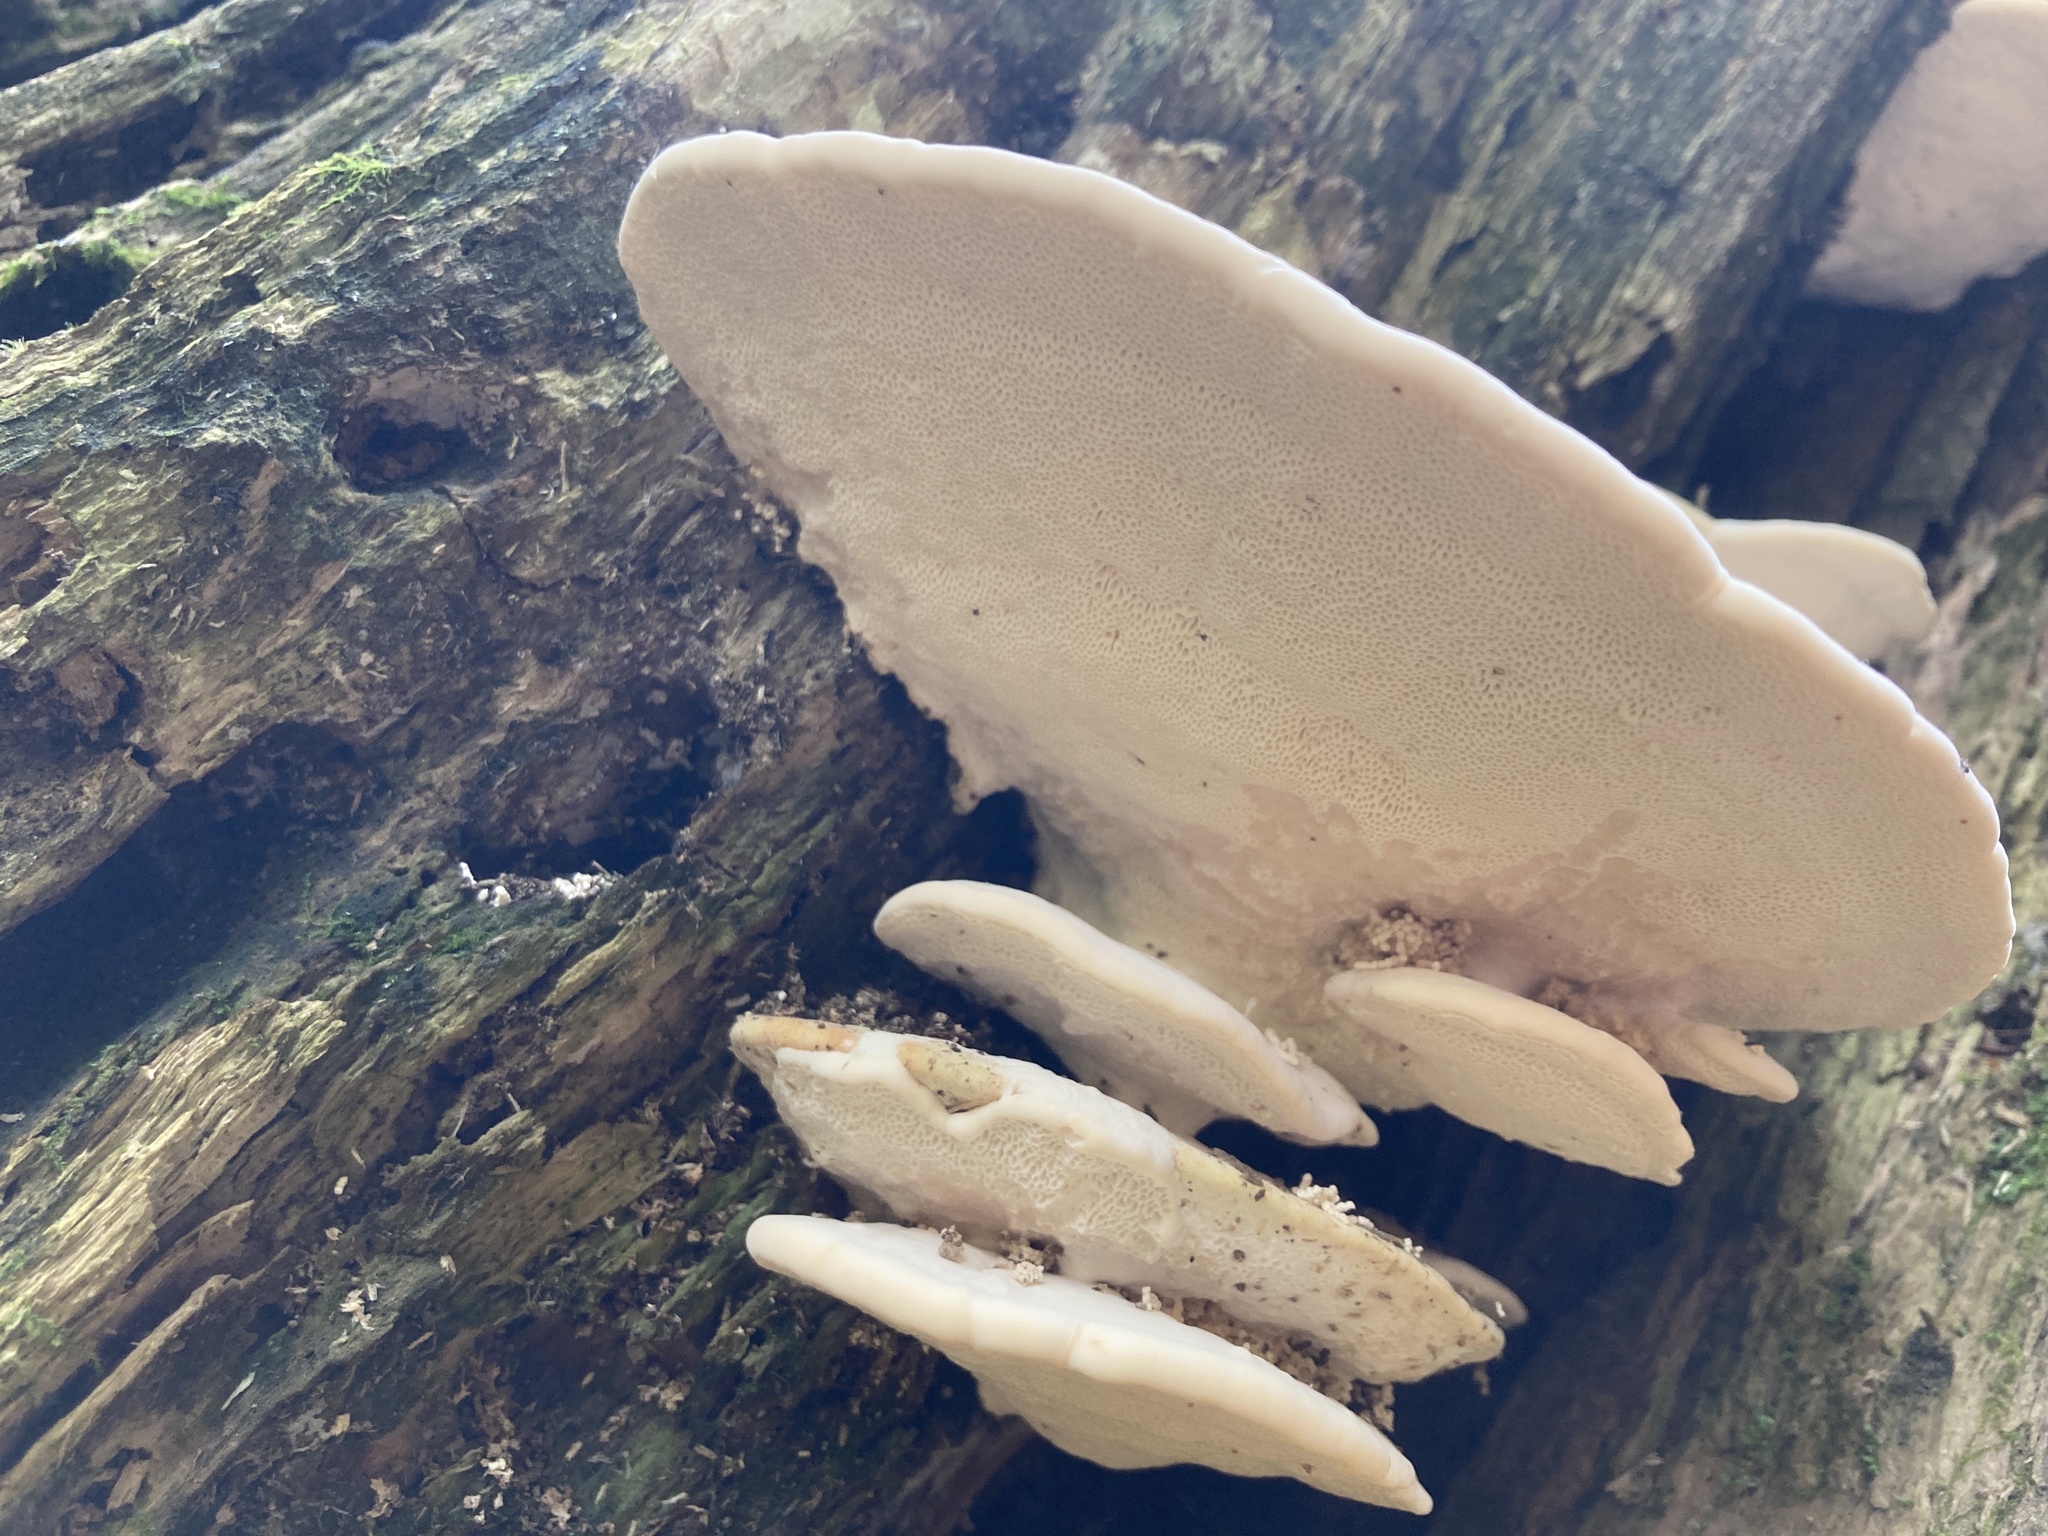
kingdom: Fungi
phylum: Basidiomycota
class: Agaricomycetes
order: Polyporales
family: Polyporaceae
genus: Trametes
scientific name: Trametes gibbosa
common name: Lumpy bracket
